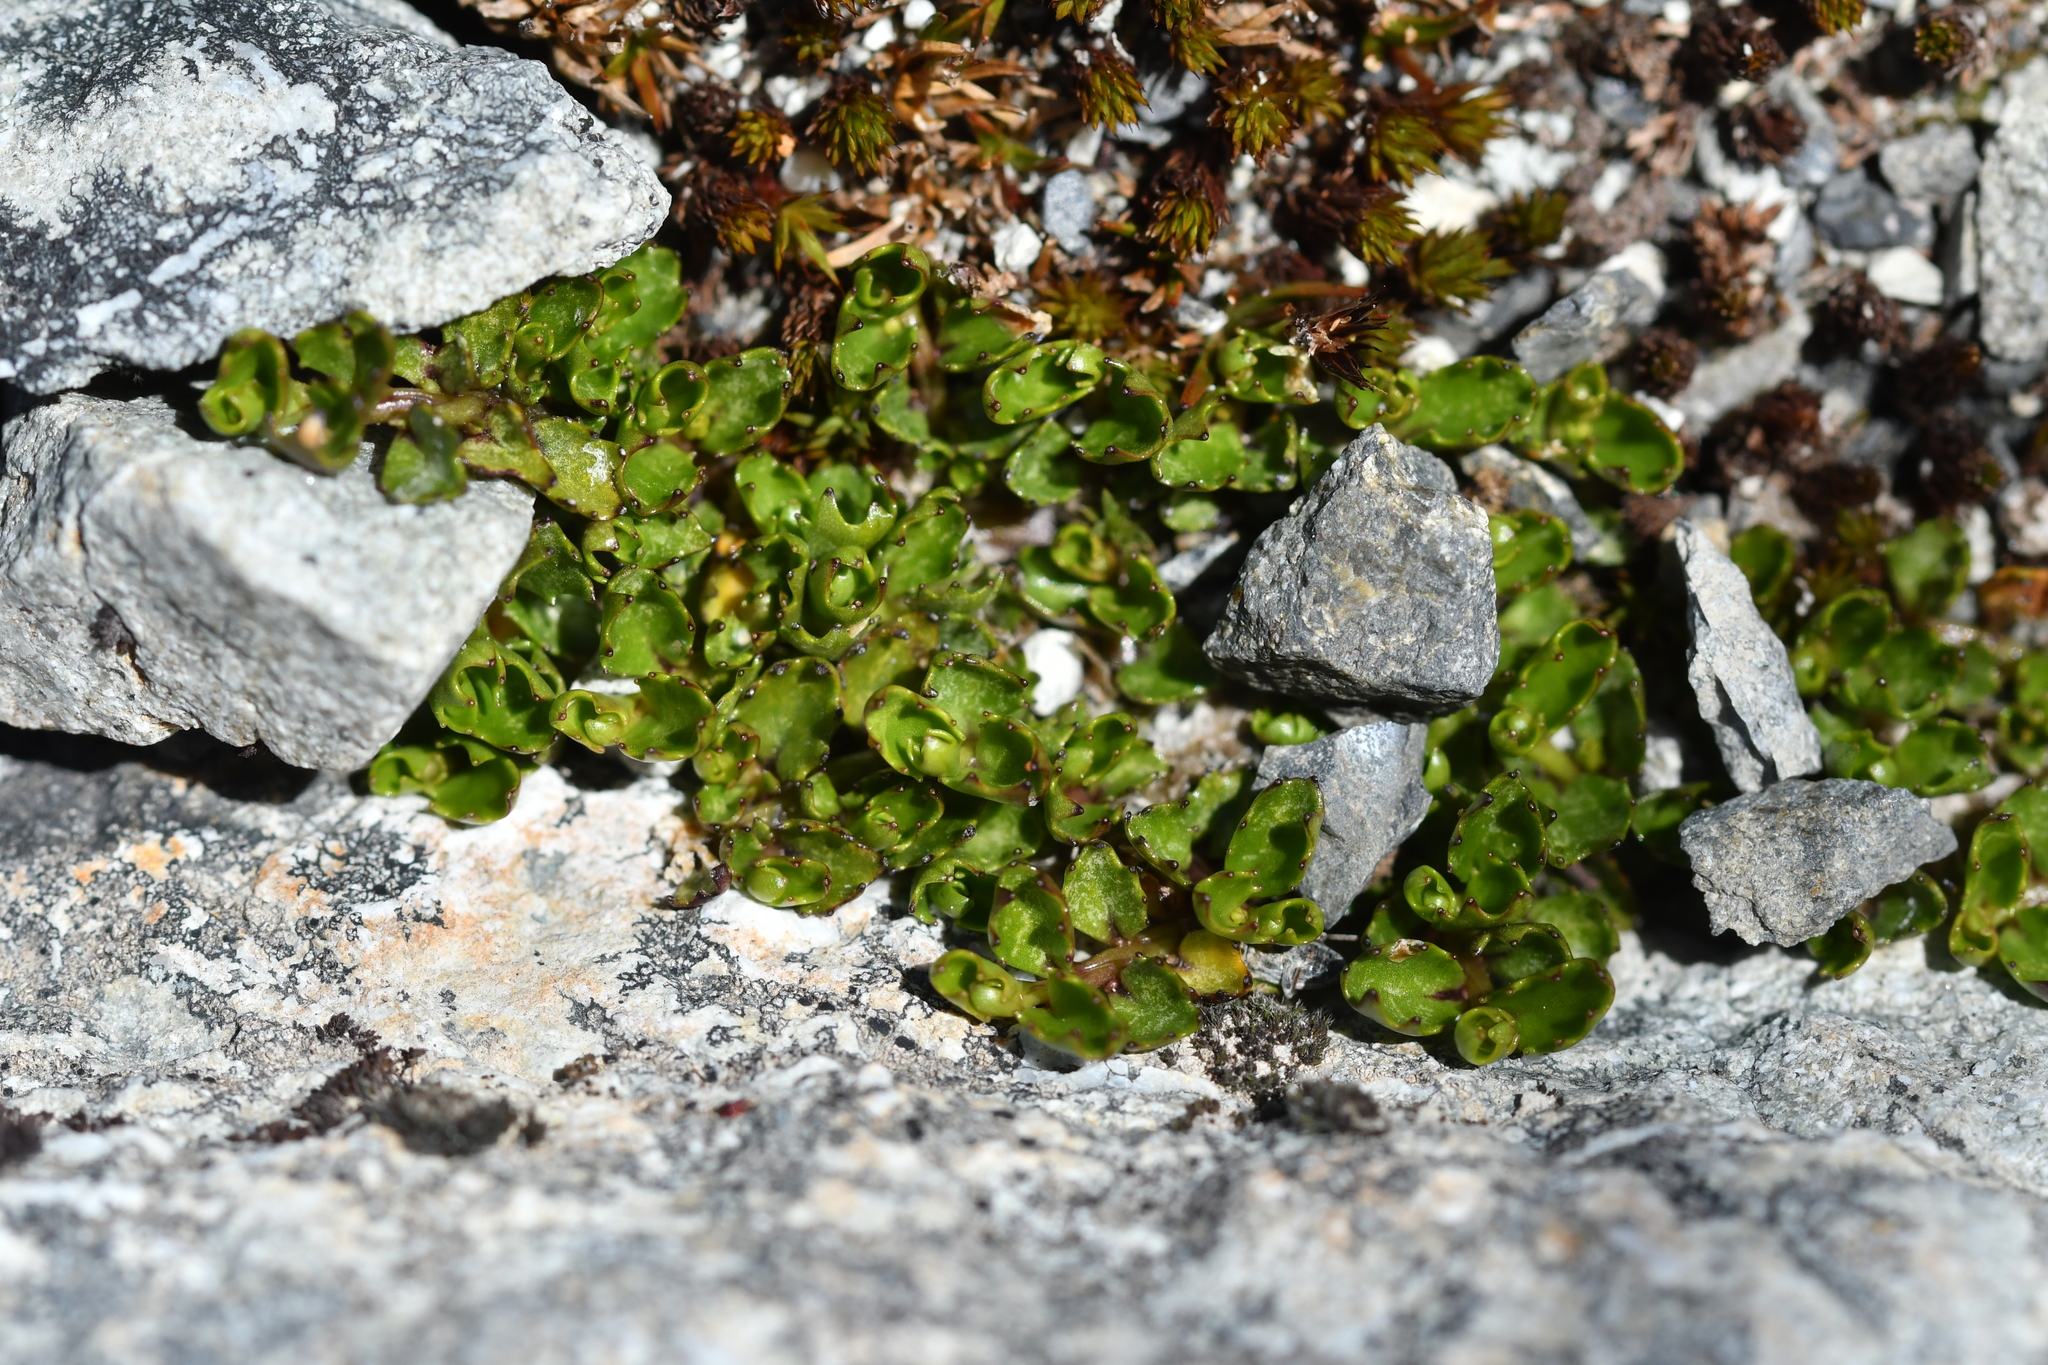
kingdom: Plantae
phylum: Tracheophyta
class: Magnoliopsida
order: Asterales
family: Campanulaceae
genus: Lobelia
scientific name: Lobelia macrodon
